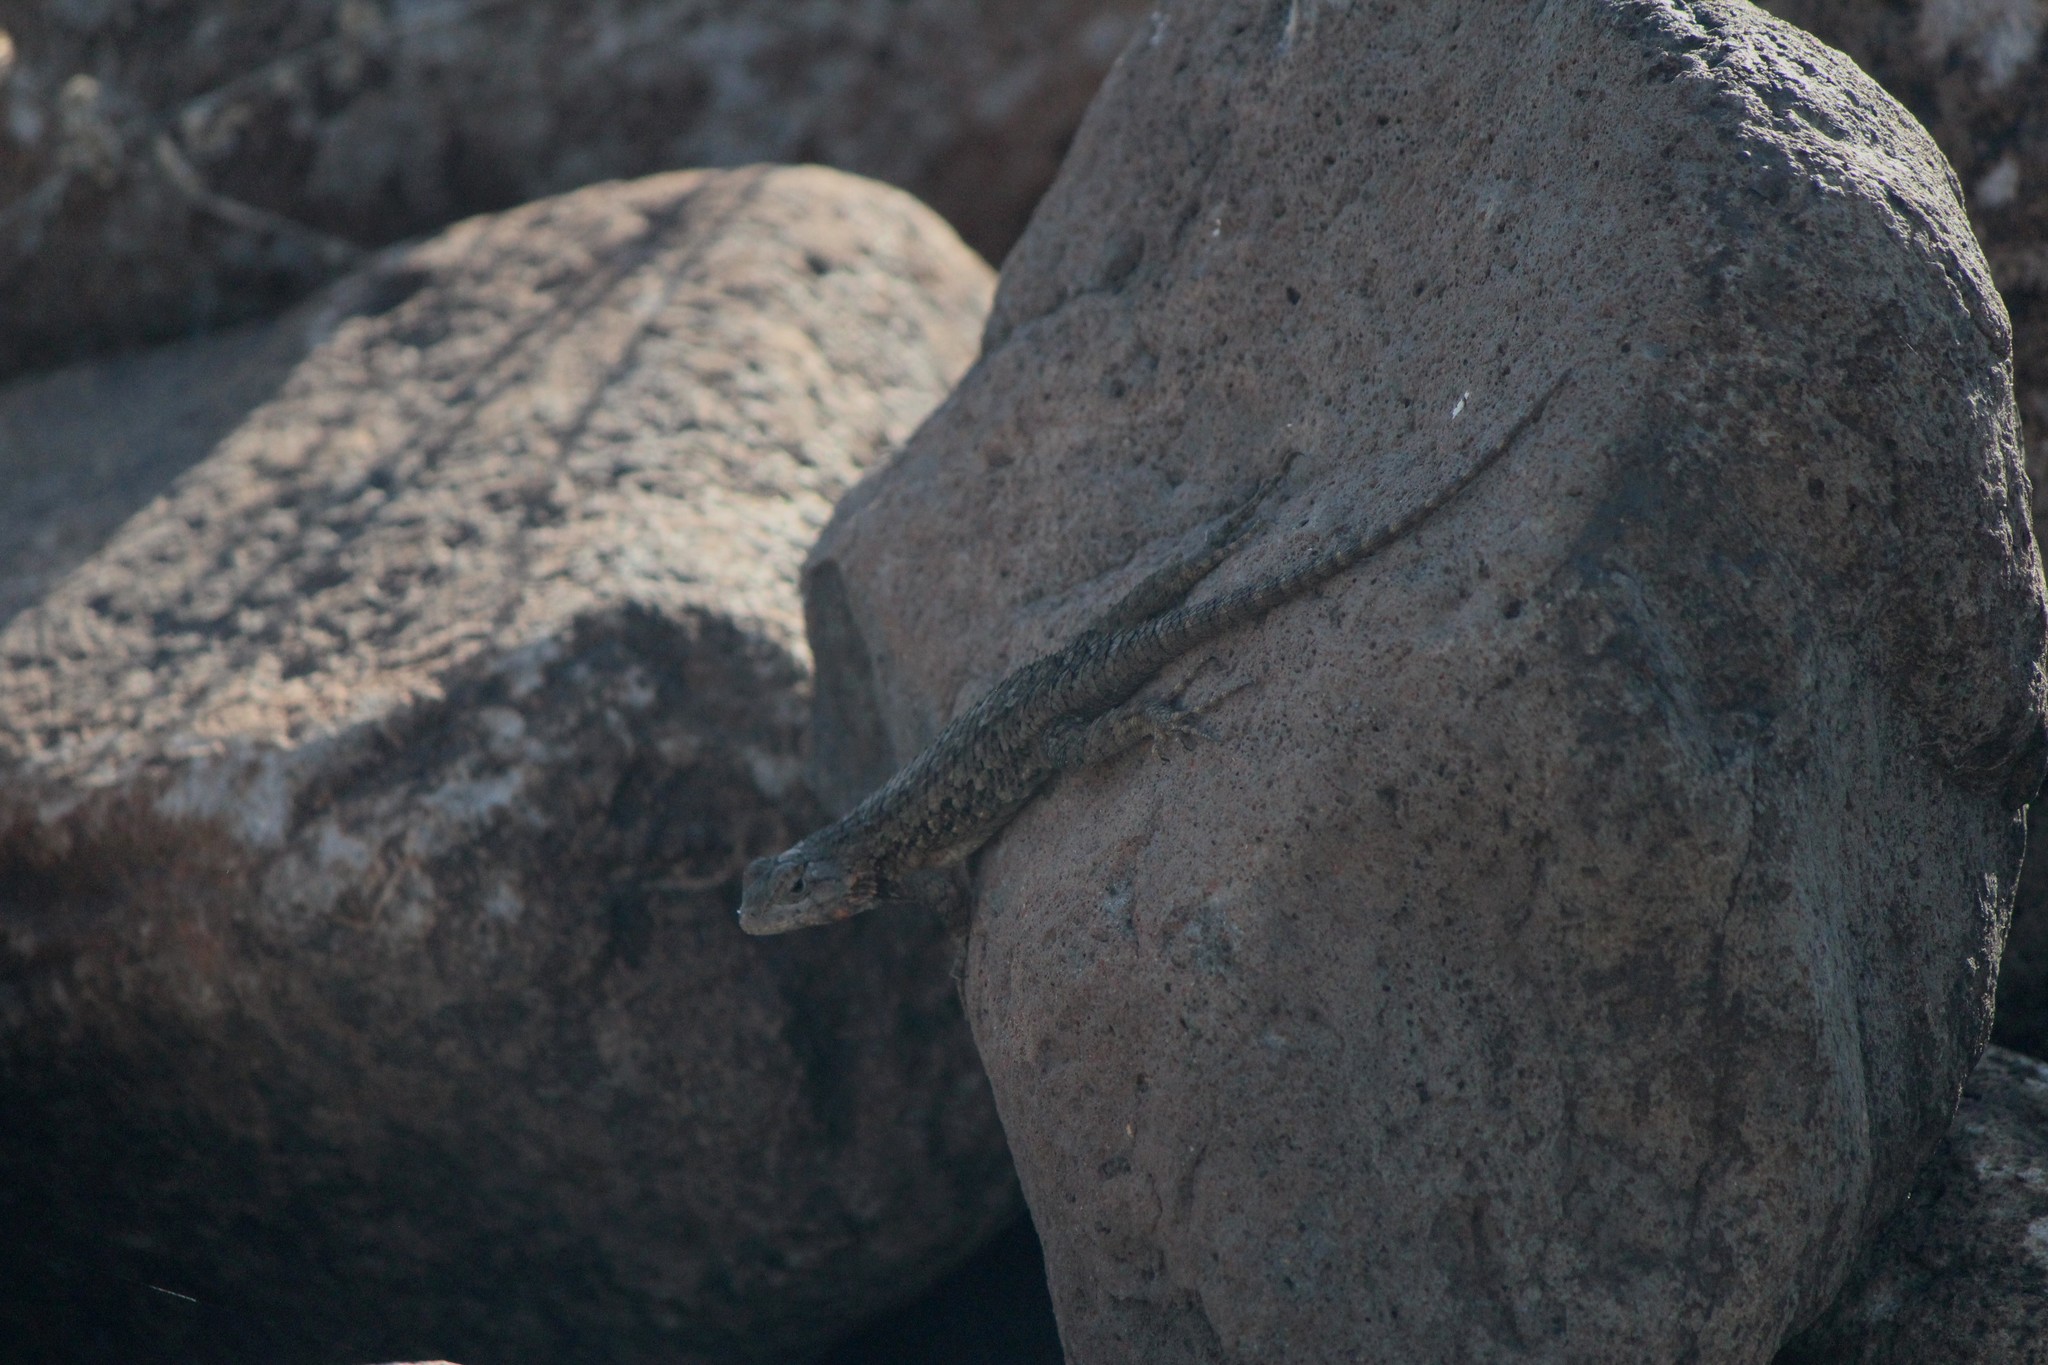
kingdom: Animalia
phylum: Chordata
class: Squamata
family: Phrynosomatidae
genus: Sceloporus
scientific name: Sceloporus spinosus
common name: Blue-spotted spiny lizard [caeruleopunctatus]
